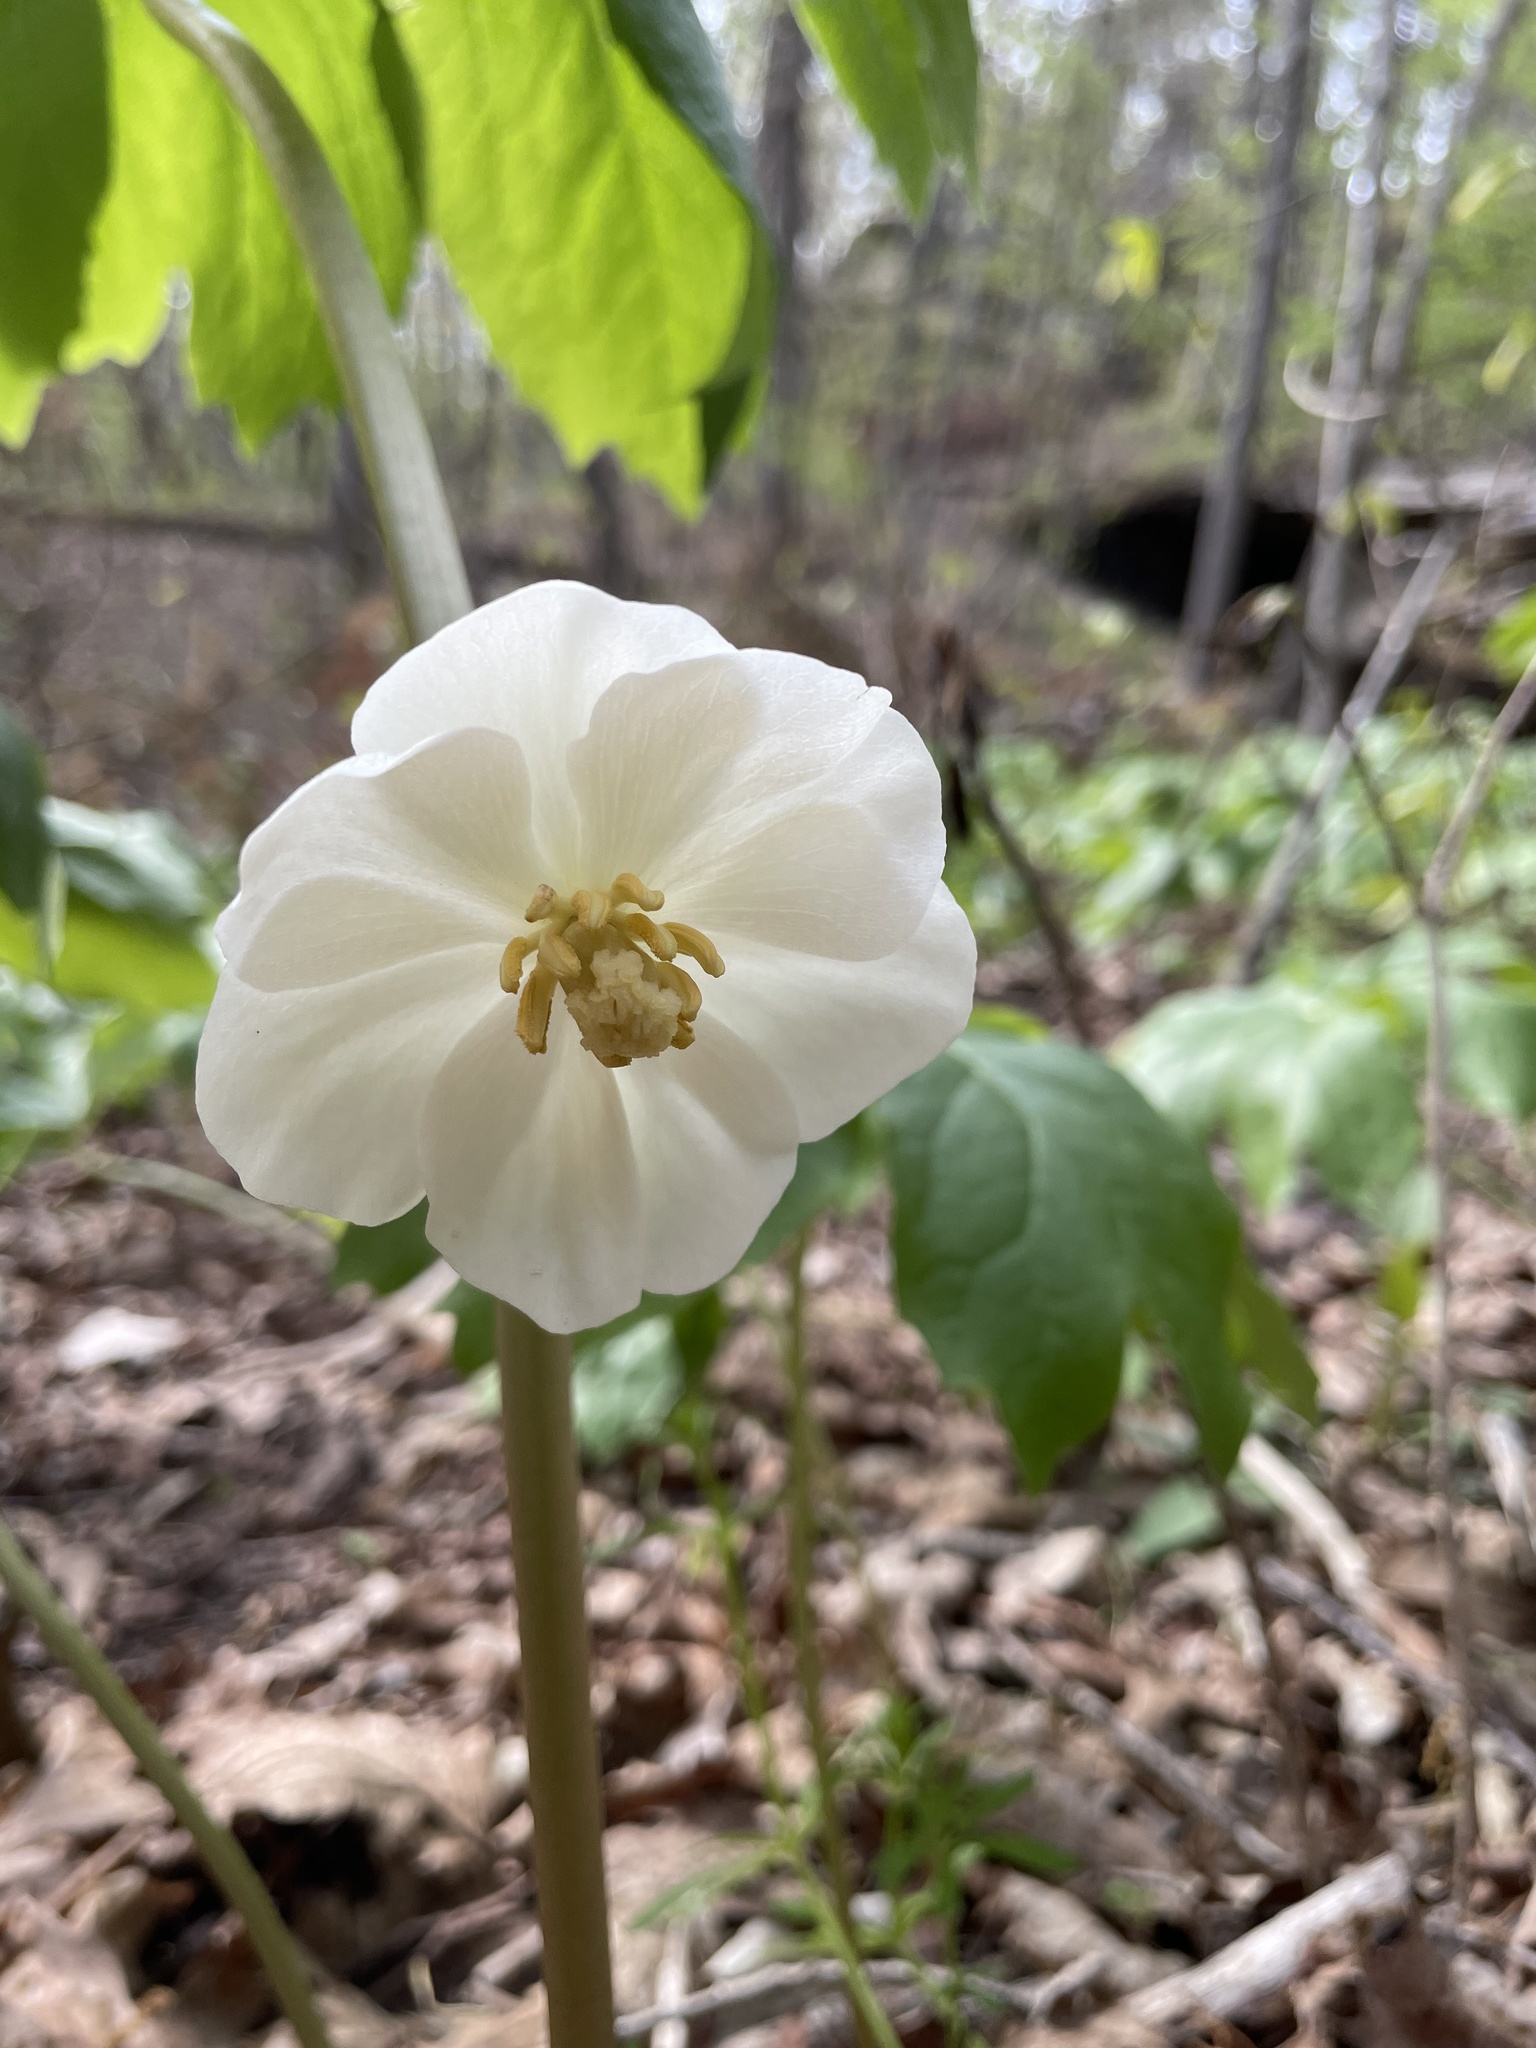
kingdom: Plantae
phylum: Tracheophyta
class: Magnoliopsida
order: Ranunculales
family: Berberidaceae
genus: Podophyllum
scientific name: Podophyllum peltatum
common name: Wild mandrake
